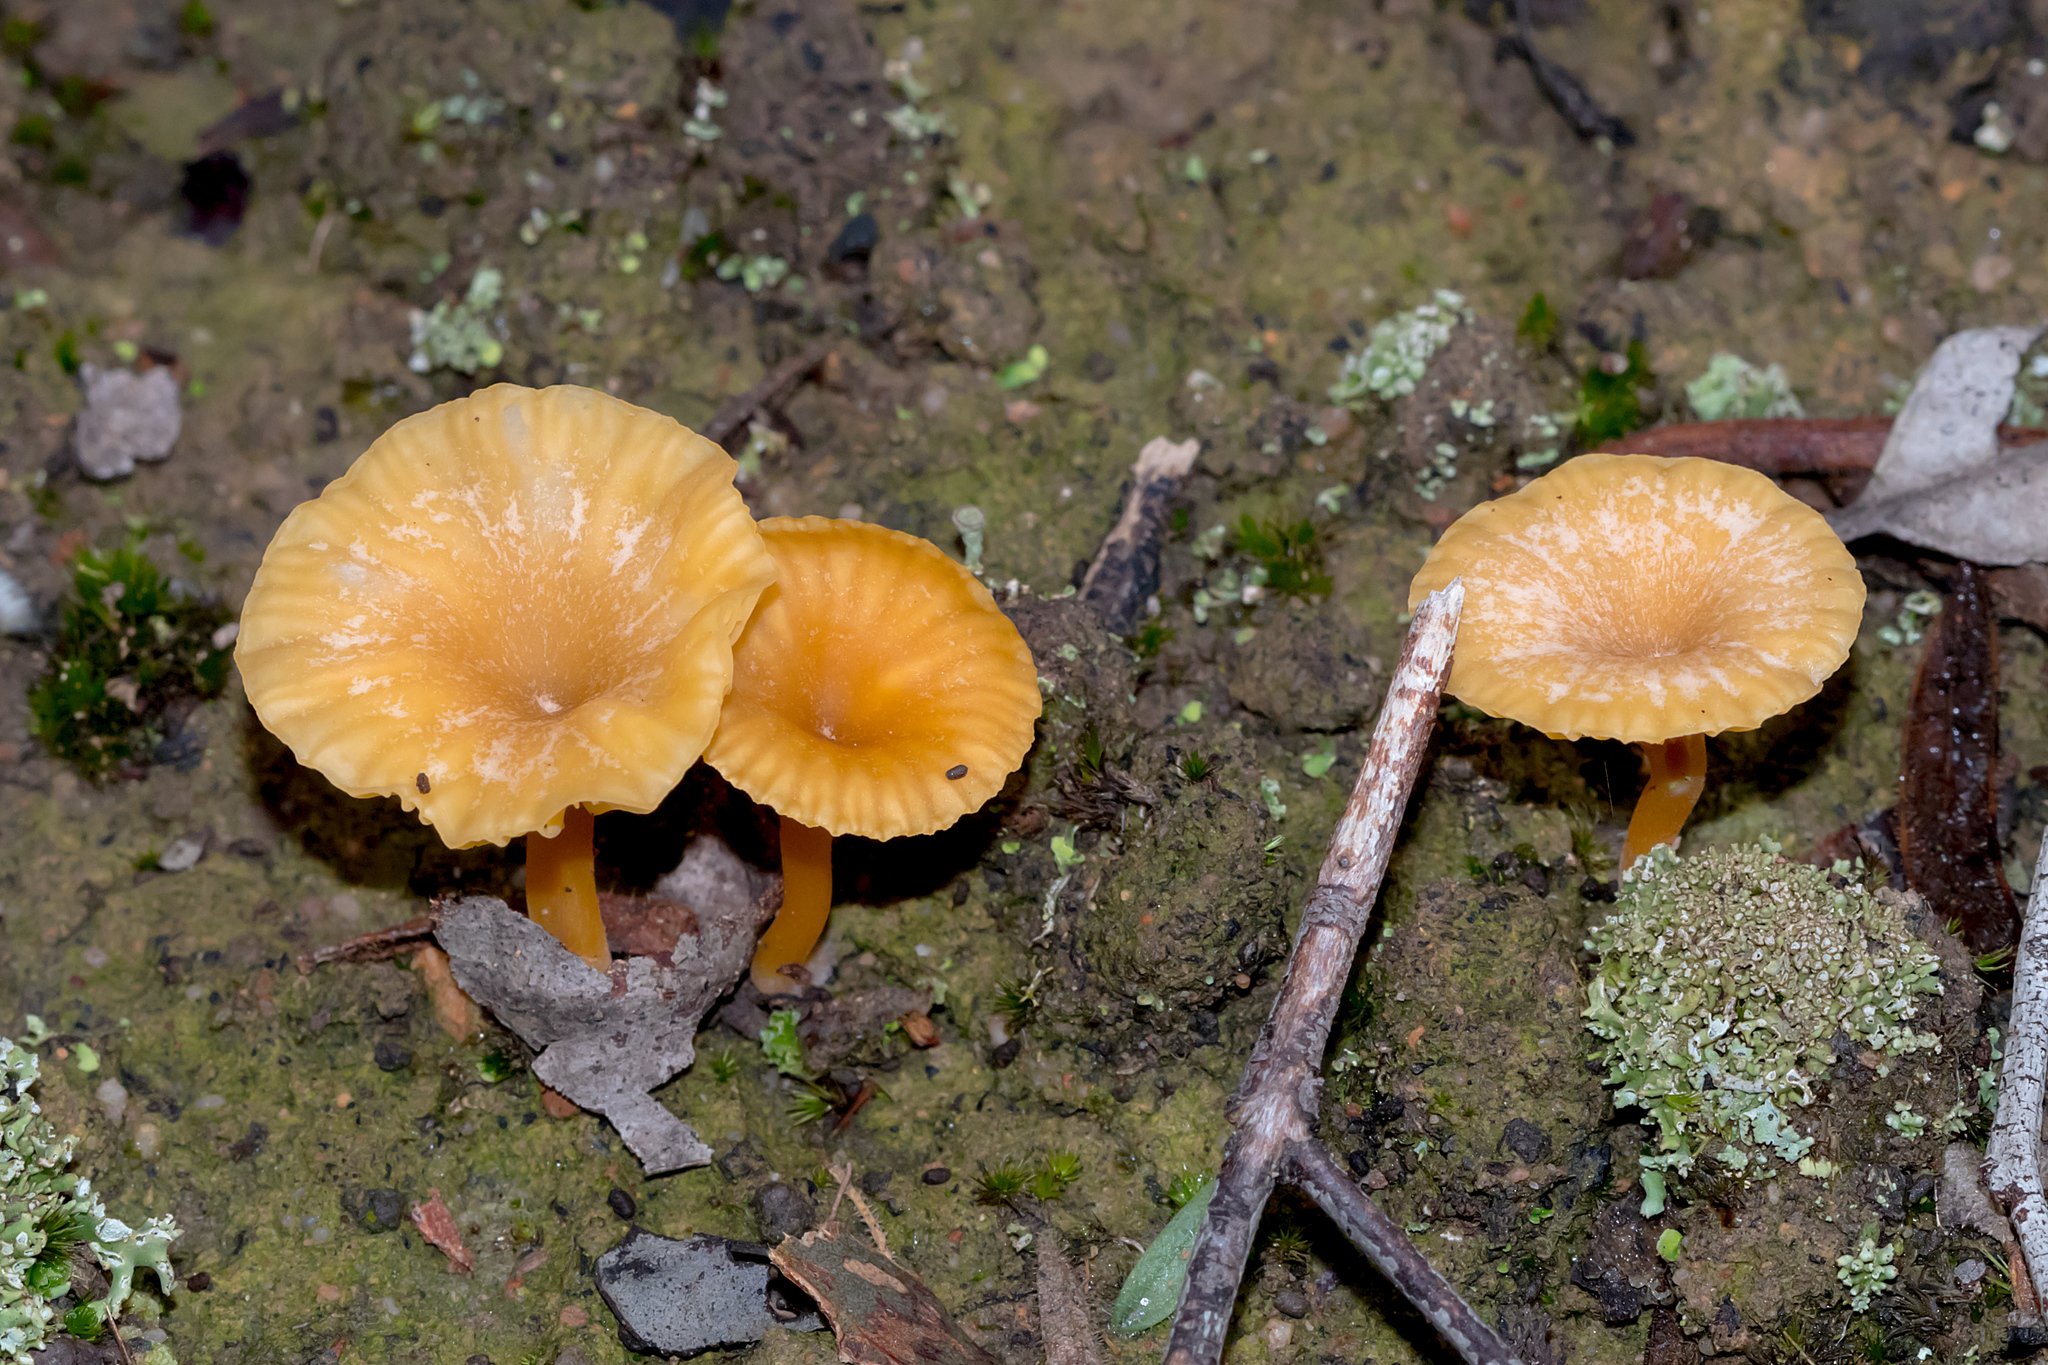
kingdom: Fungi
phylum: Basidiomycota
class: Agaricomycetes
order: Agaricales
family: Hygrophoraceae
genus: Lichenomphalia
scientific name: Lichenomphalia chromacea
